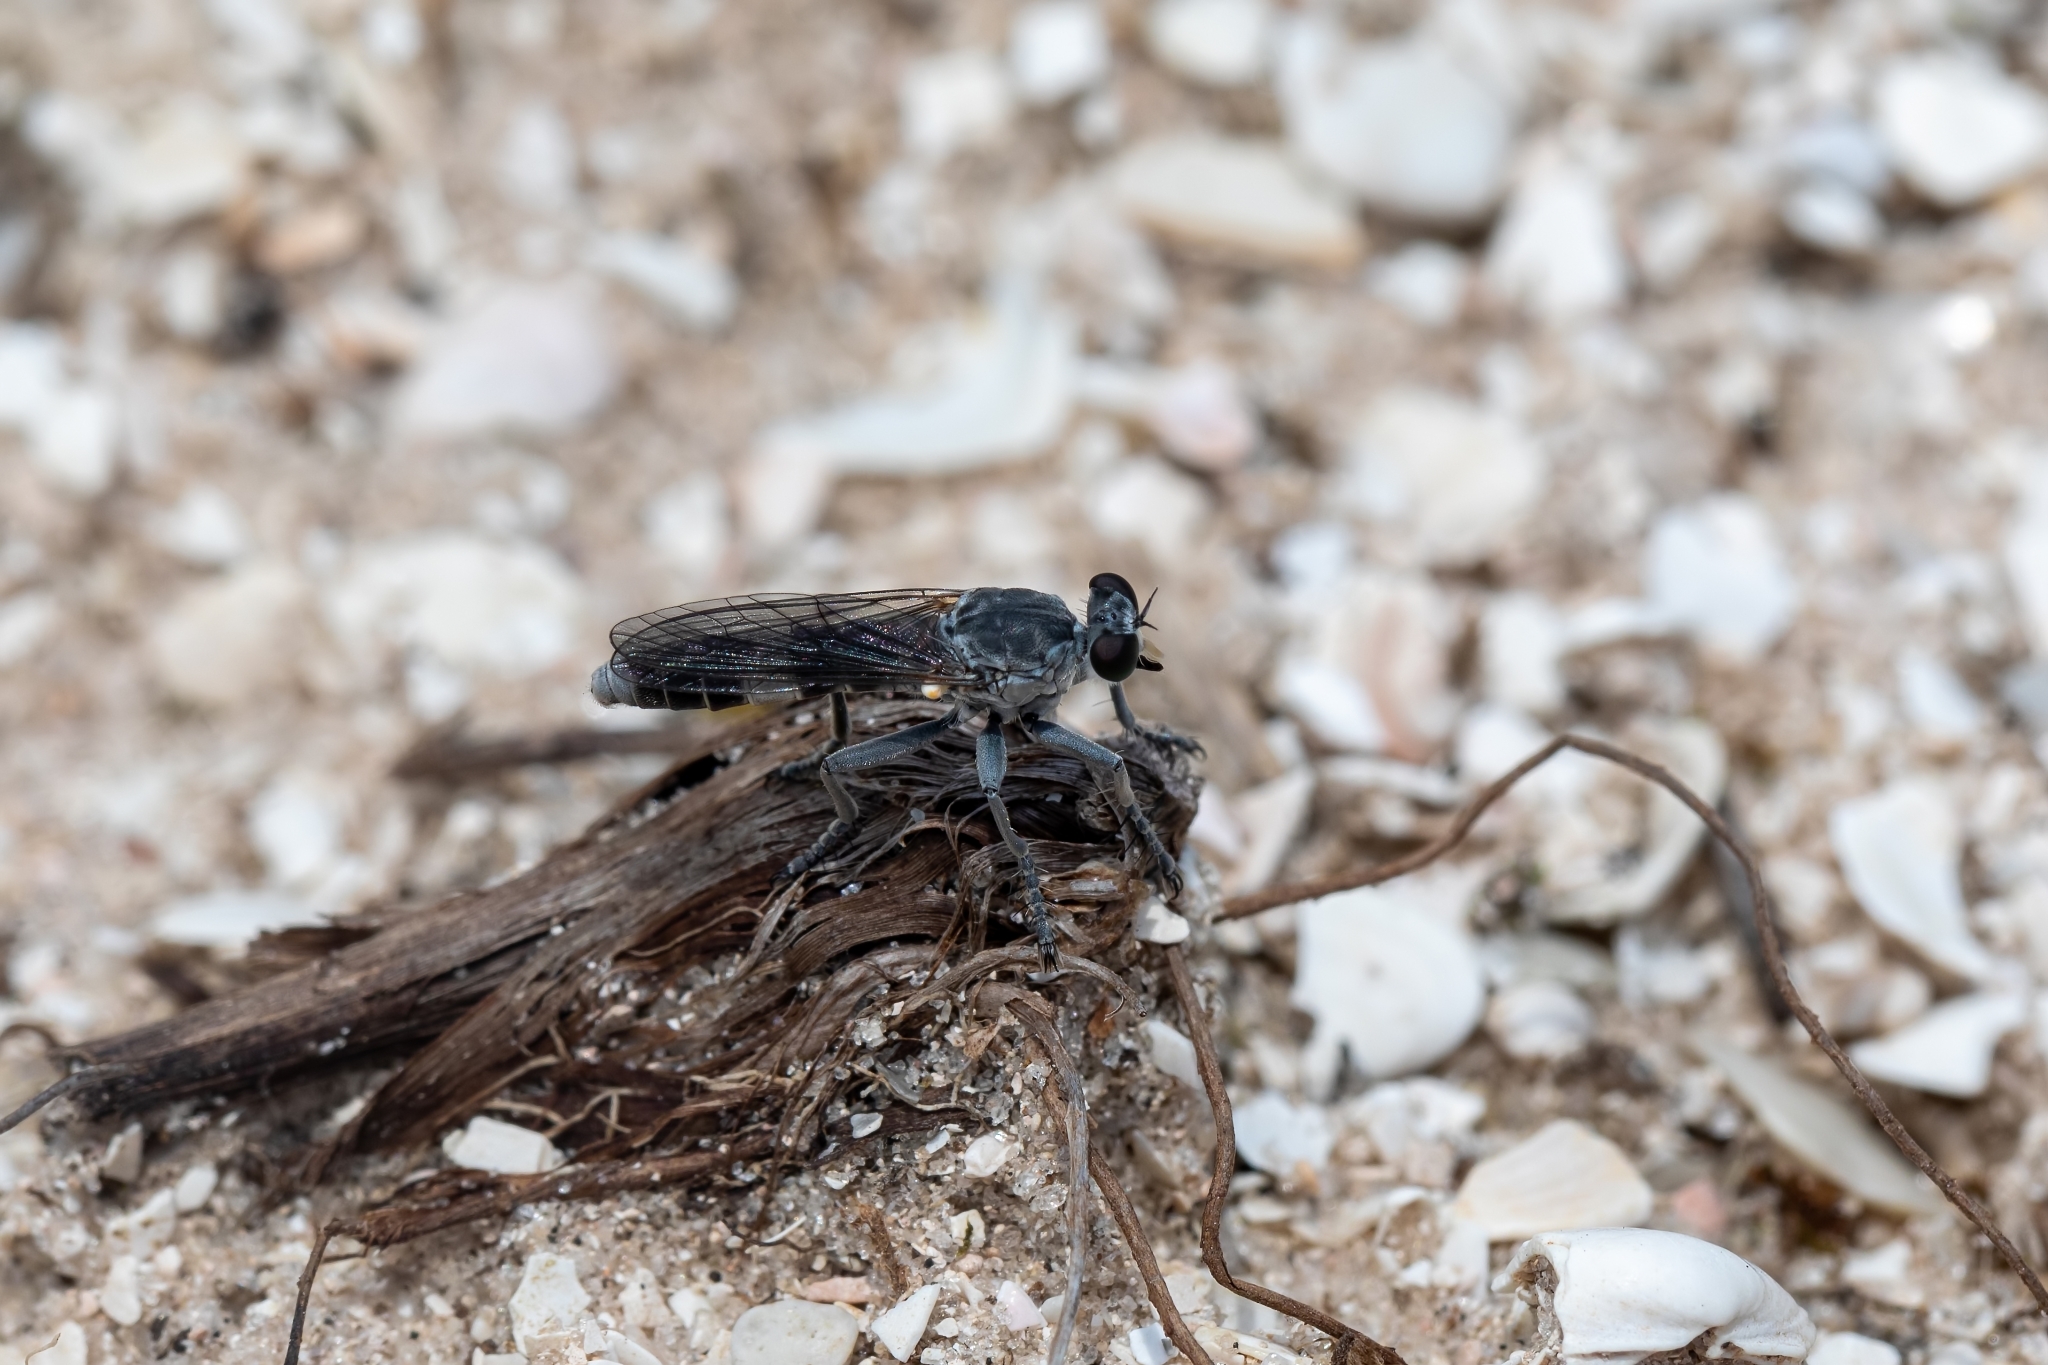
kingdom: Animalia
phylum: Arthropoda
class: Insecta
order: Diptera
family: Asilidae
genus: Stichopogon
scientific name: Stichopogon trifasciatus
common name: Three-banded robber fly
